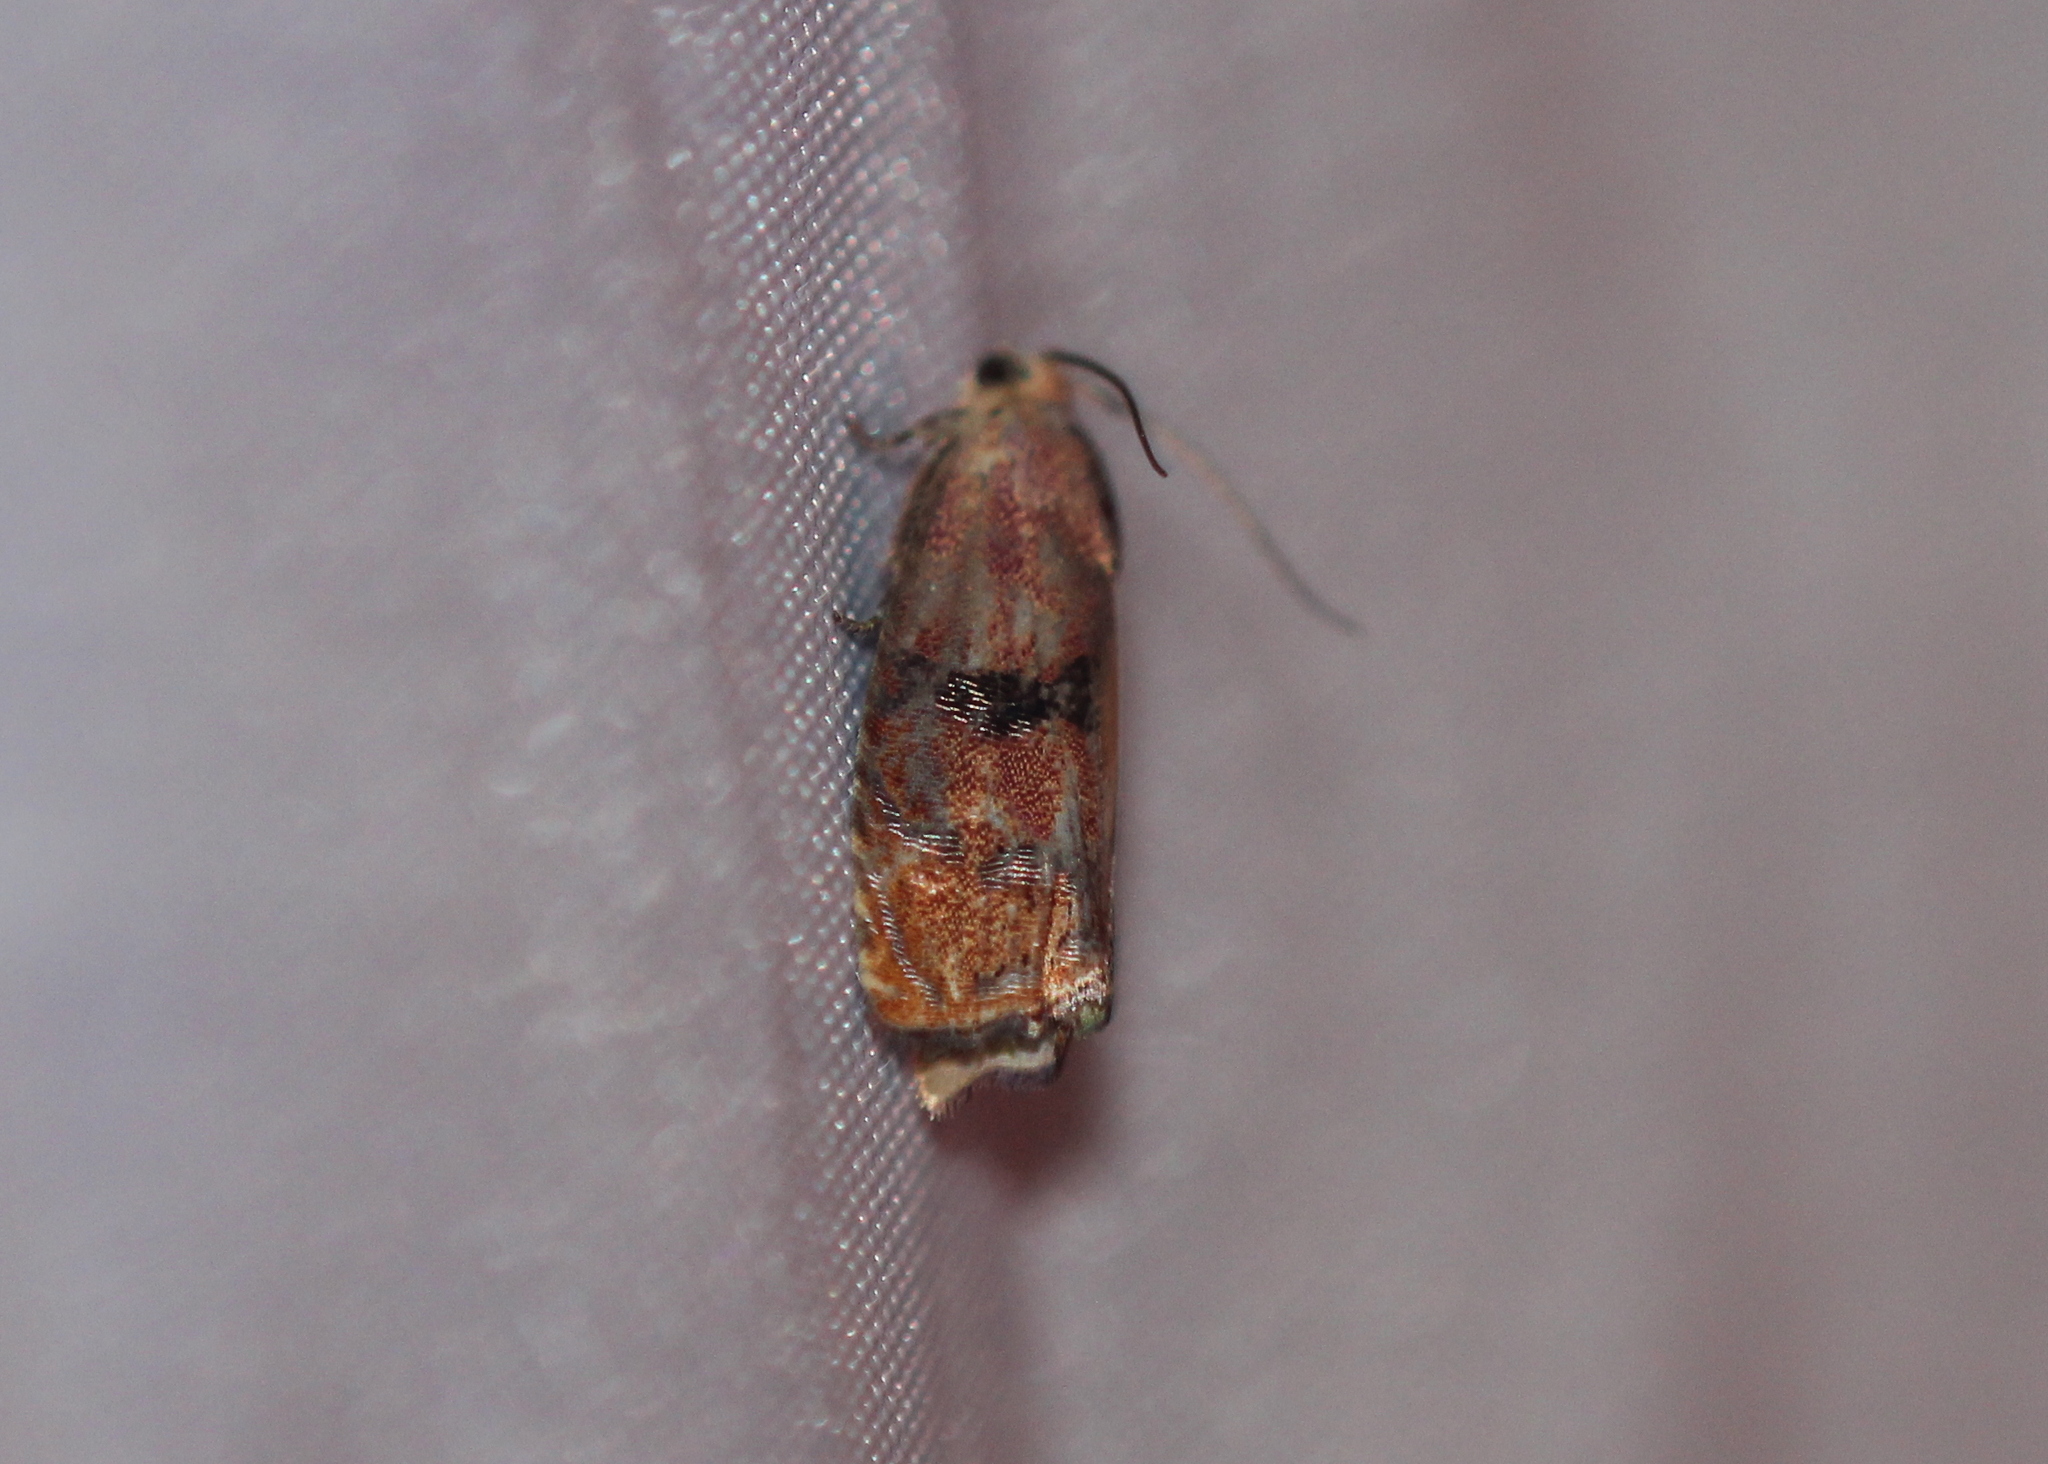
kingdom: Animalia
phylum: Arthropoda
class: Insecta
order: Lepidoptera
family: Tortricidae
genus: Cydia
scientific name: Cydia latiferreana
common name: Filbertworm moth
